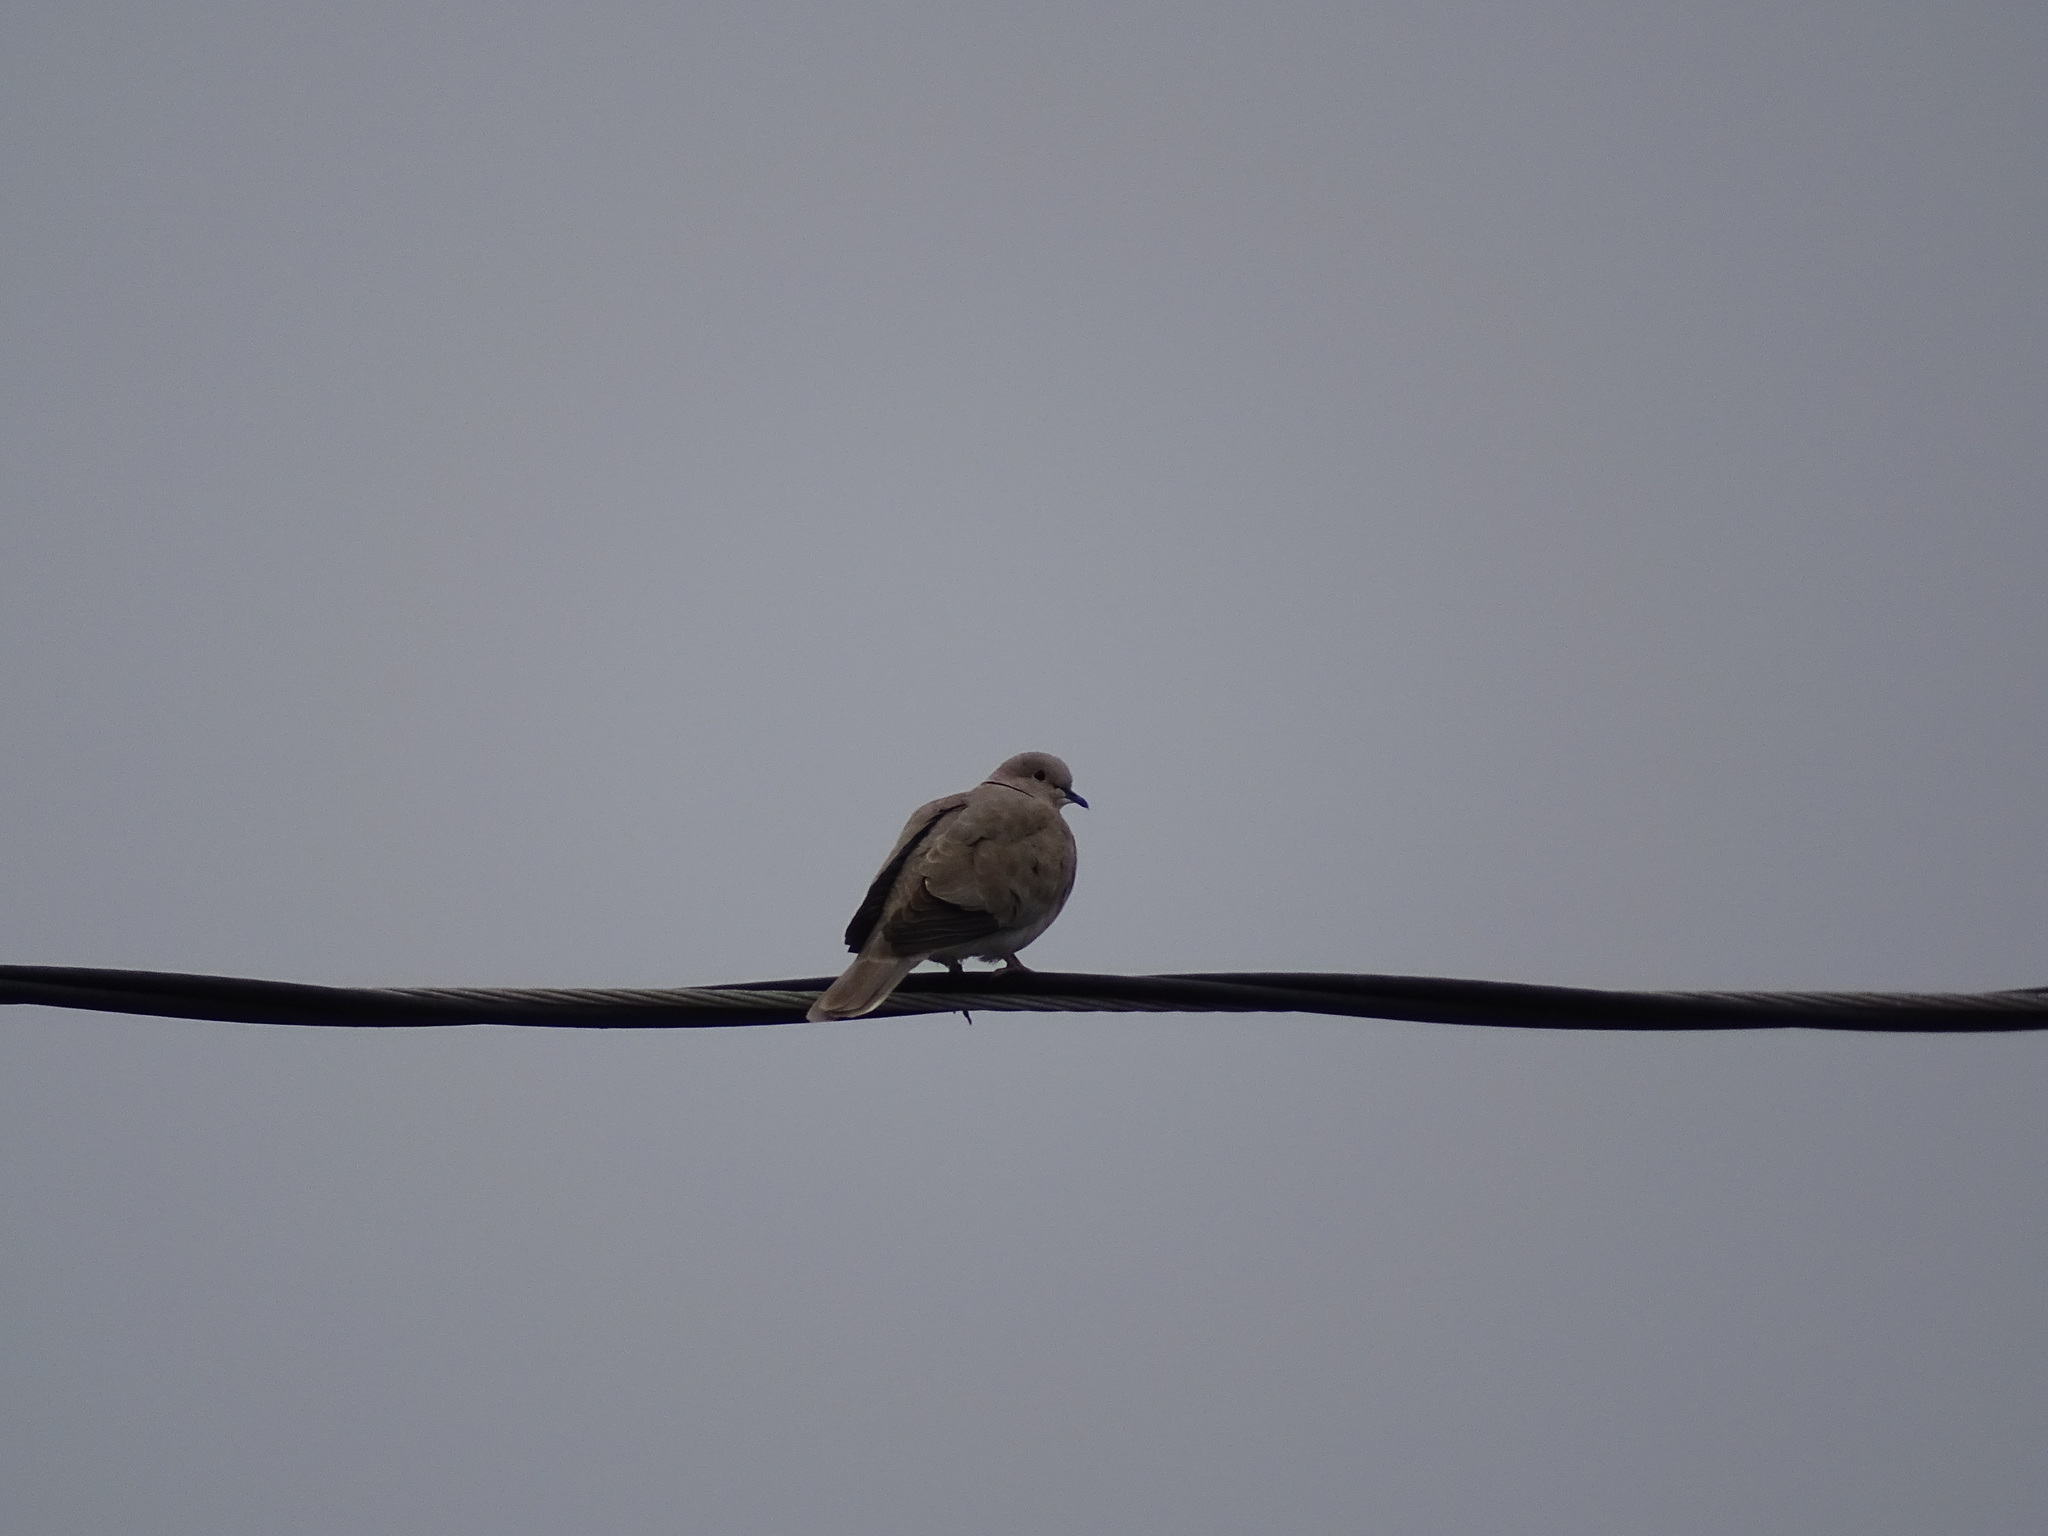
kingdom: Animalia
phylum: Chordata
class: Aves
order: Columbiformes
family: Columbidae
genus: Streptopelia
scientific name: Streptopelia decaocto
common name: Eurasian collared dove
